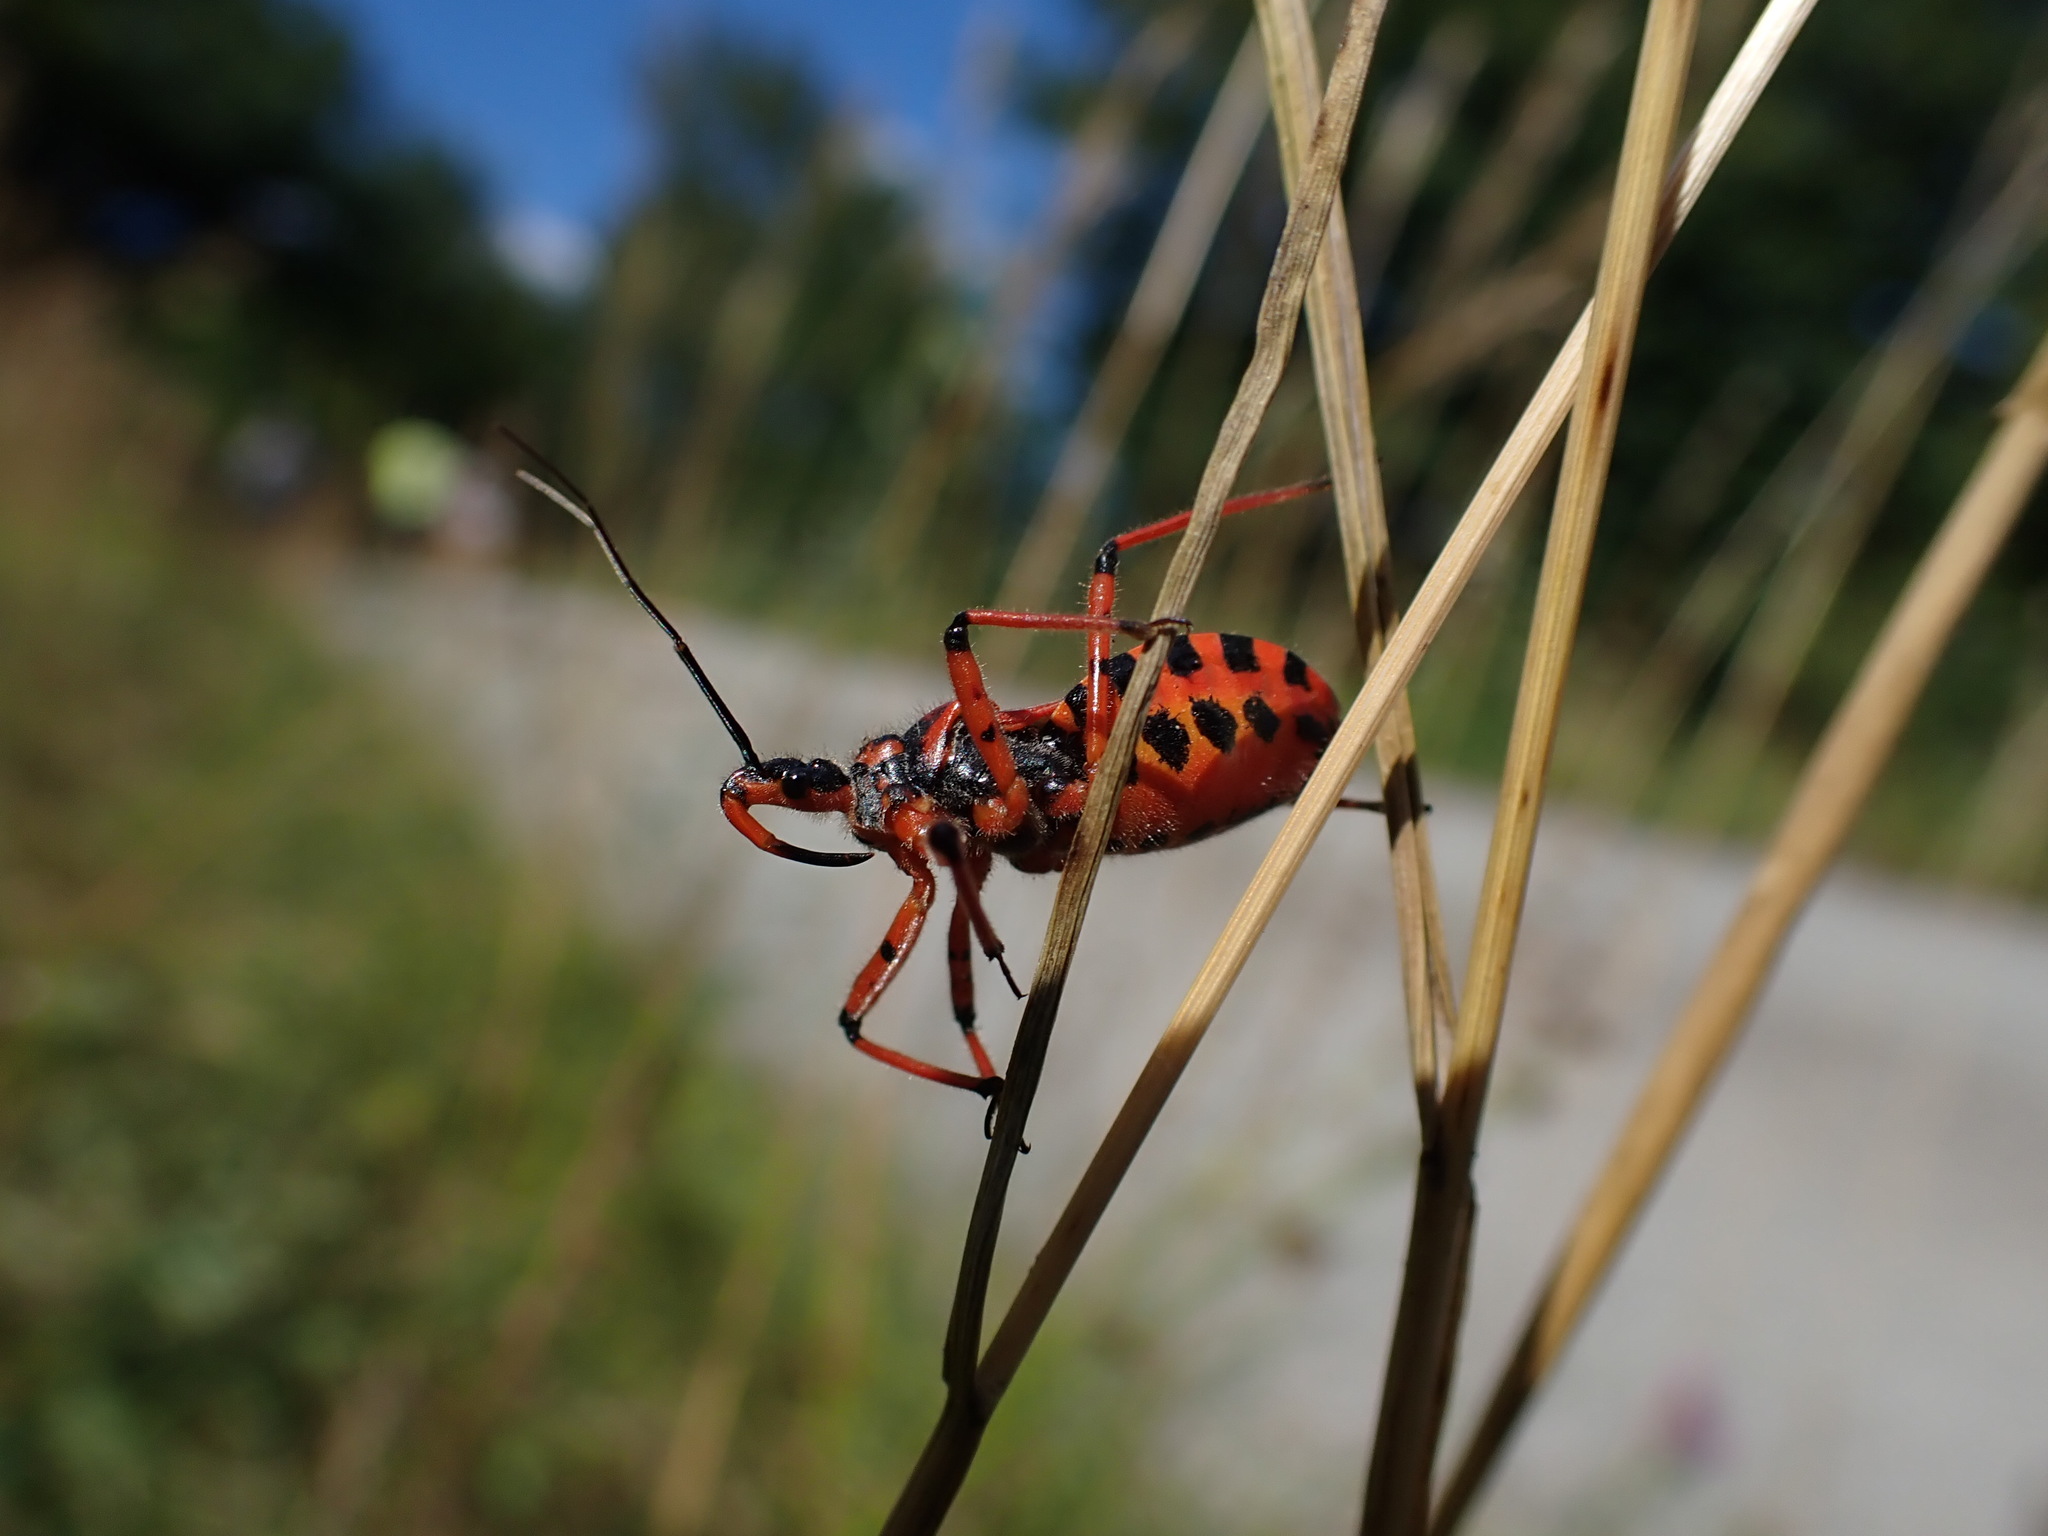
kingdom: Animalia
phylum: Arthropoda
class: Insecta
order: Hemiptera
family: Reduviidae
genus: Rhynocoris
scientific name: Rhynocoris iracundus
